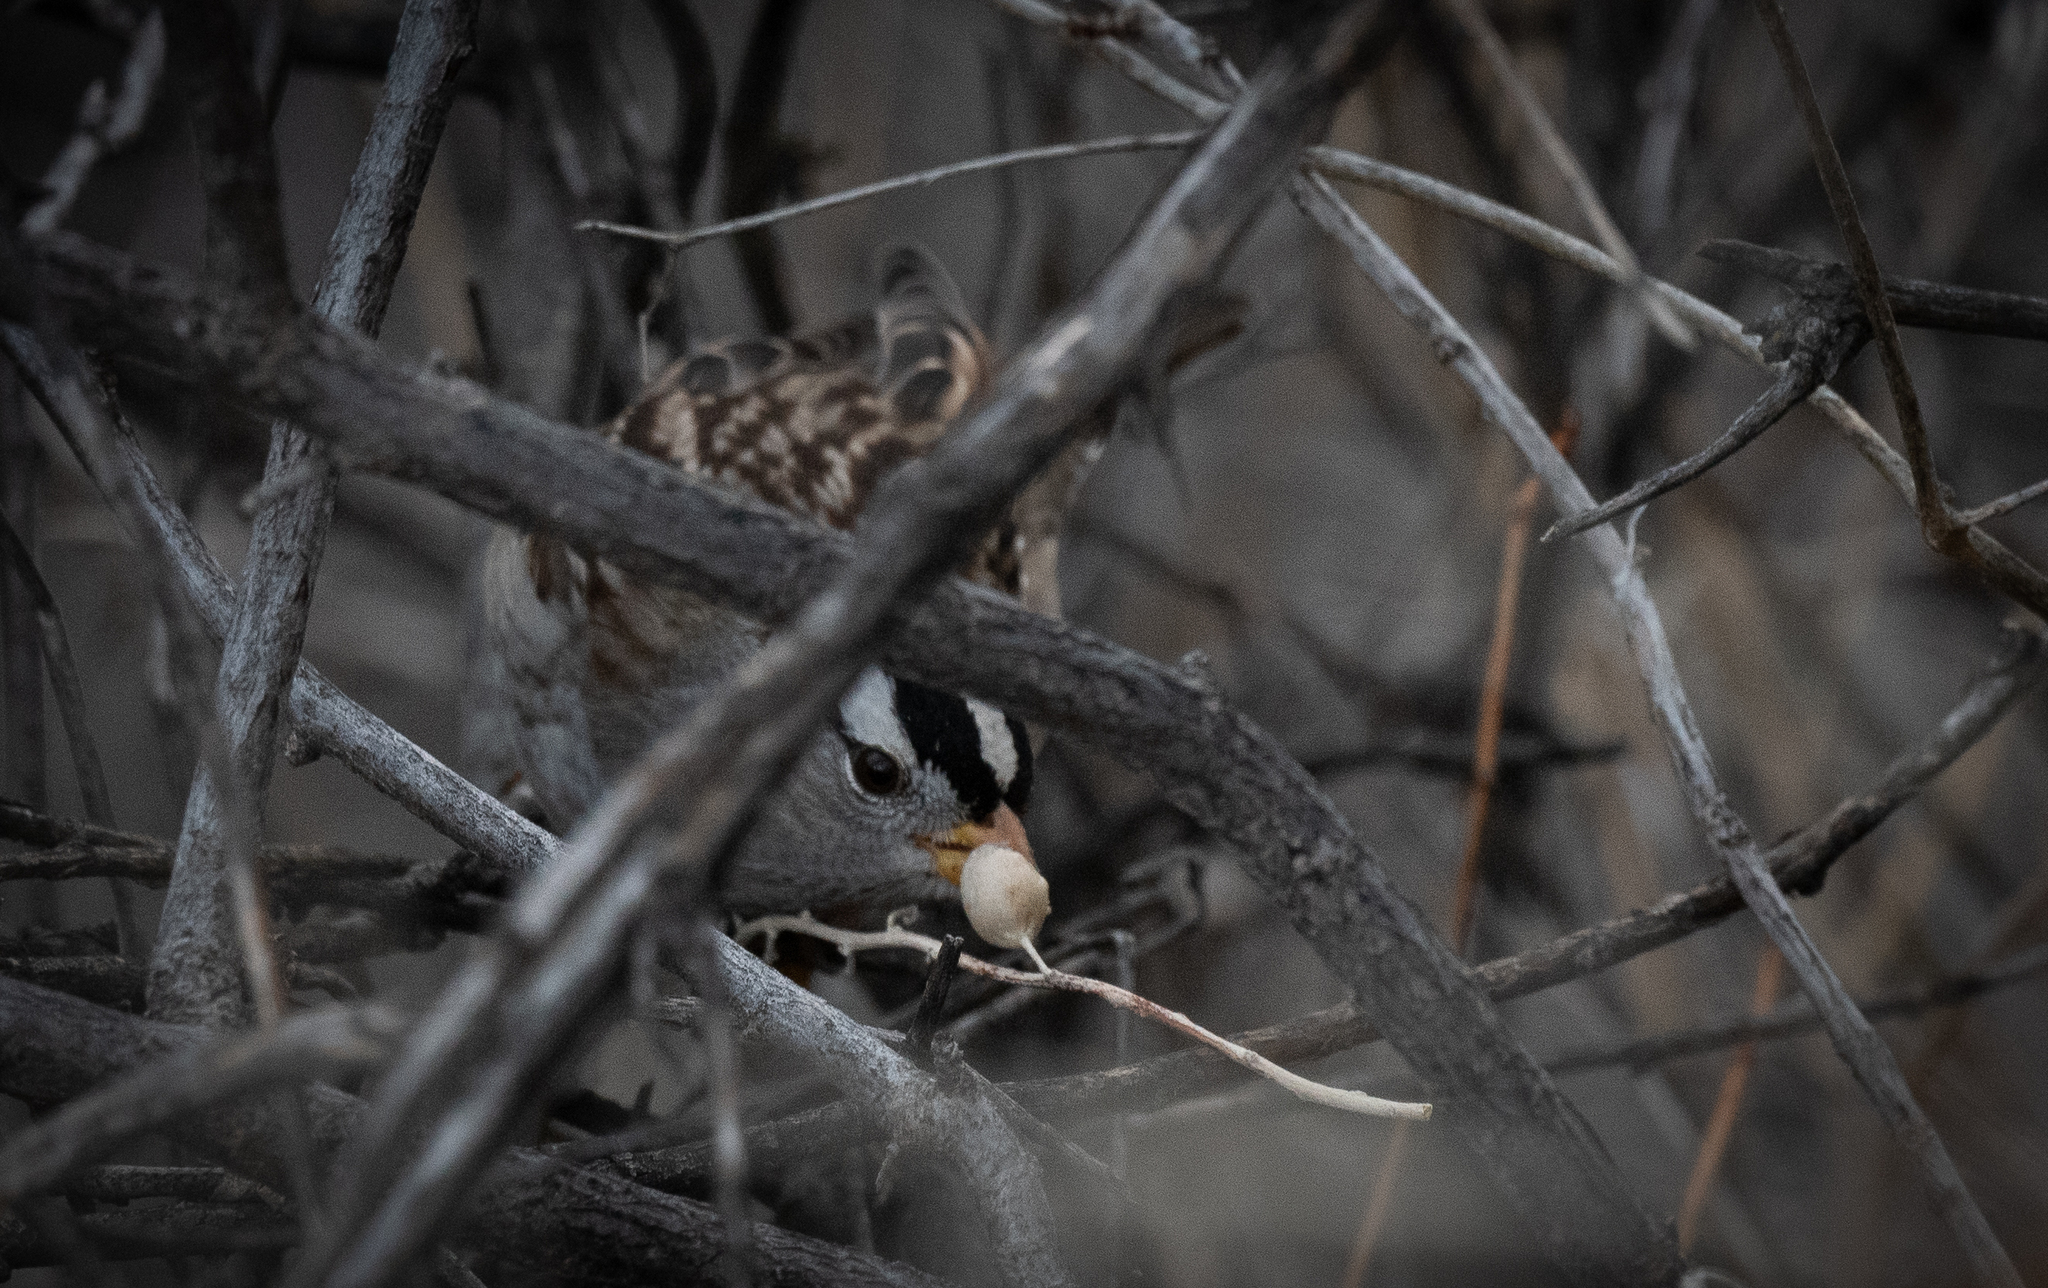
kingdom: Animalia
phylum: Chordata
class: Aves
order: Passeriformes
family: Passerellidae
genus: Zonotrichia
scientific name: Zonotrichia leucophrys
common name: White-crowned sparrow
